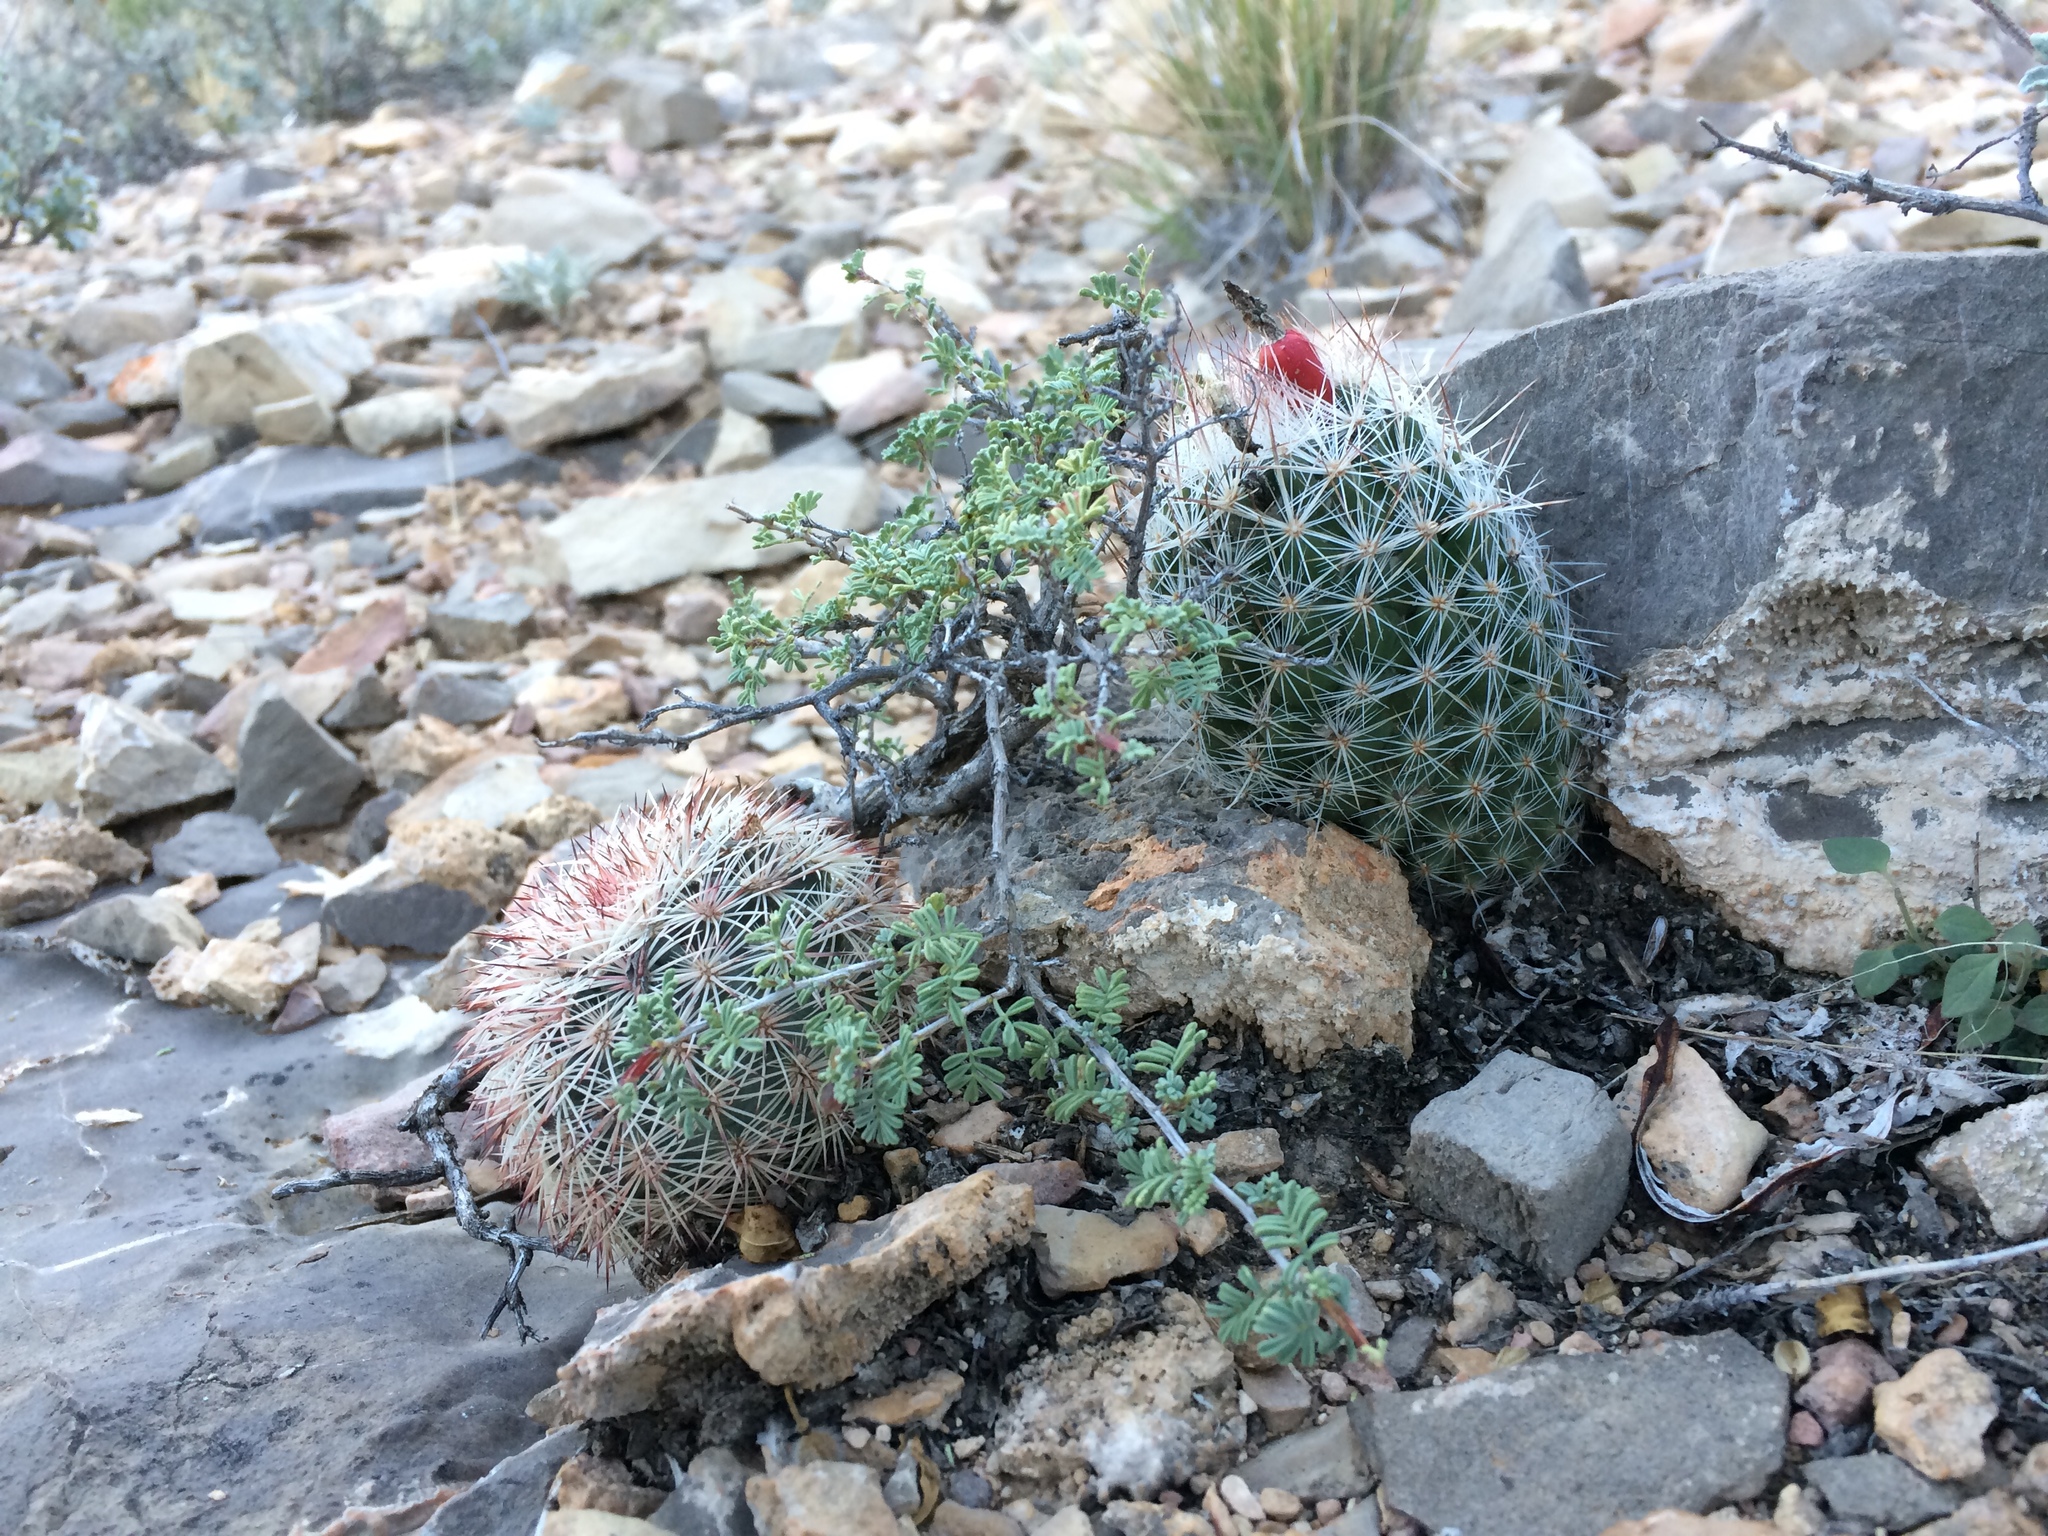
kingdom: Plantae
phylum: Tracheophyta
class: Magnoliopsida
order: Caryophyllales
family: Cactaceae
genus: Pelecyphora
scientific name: Pelecyphora tuberculosa
